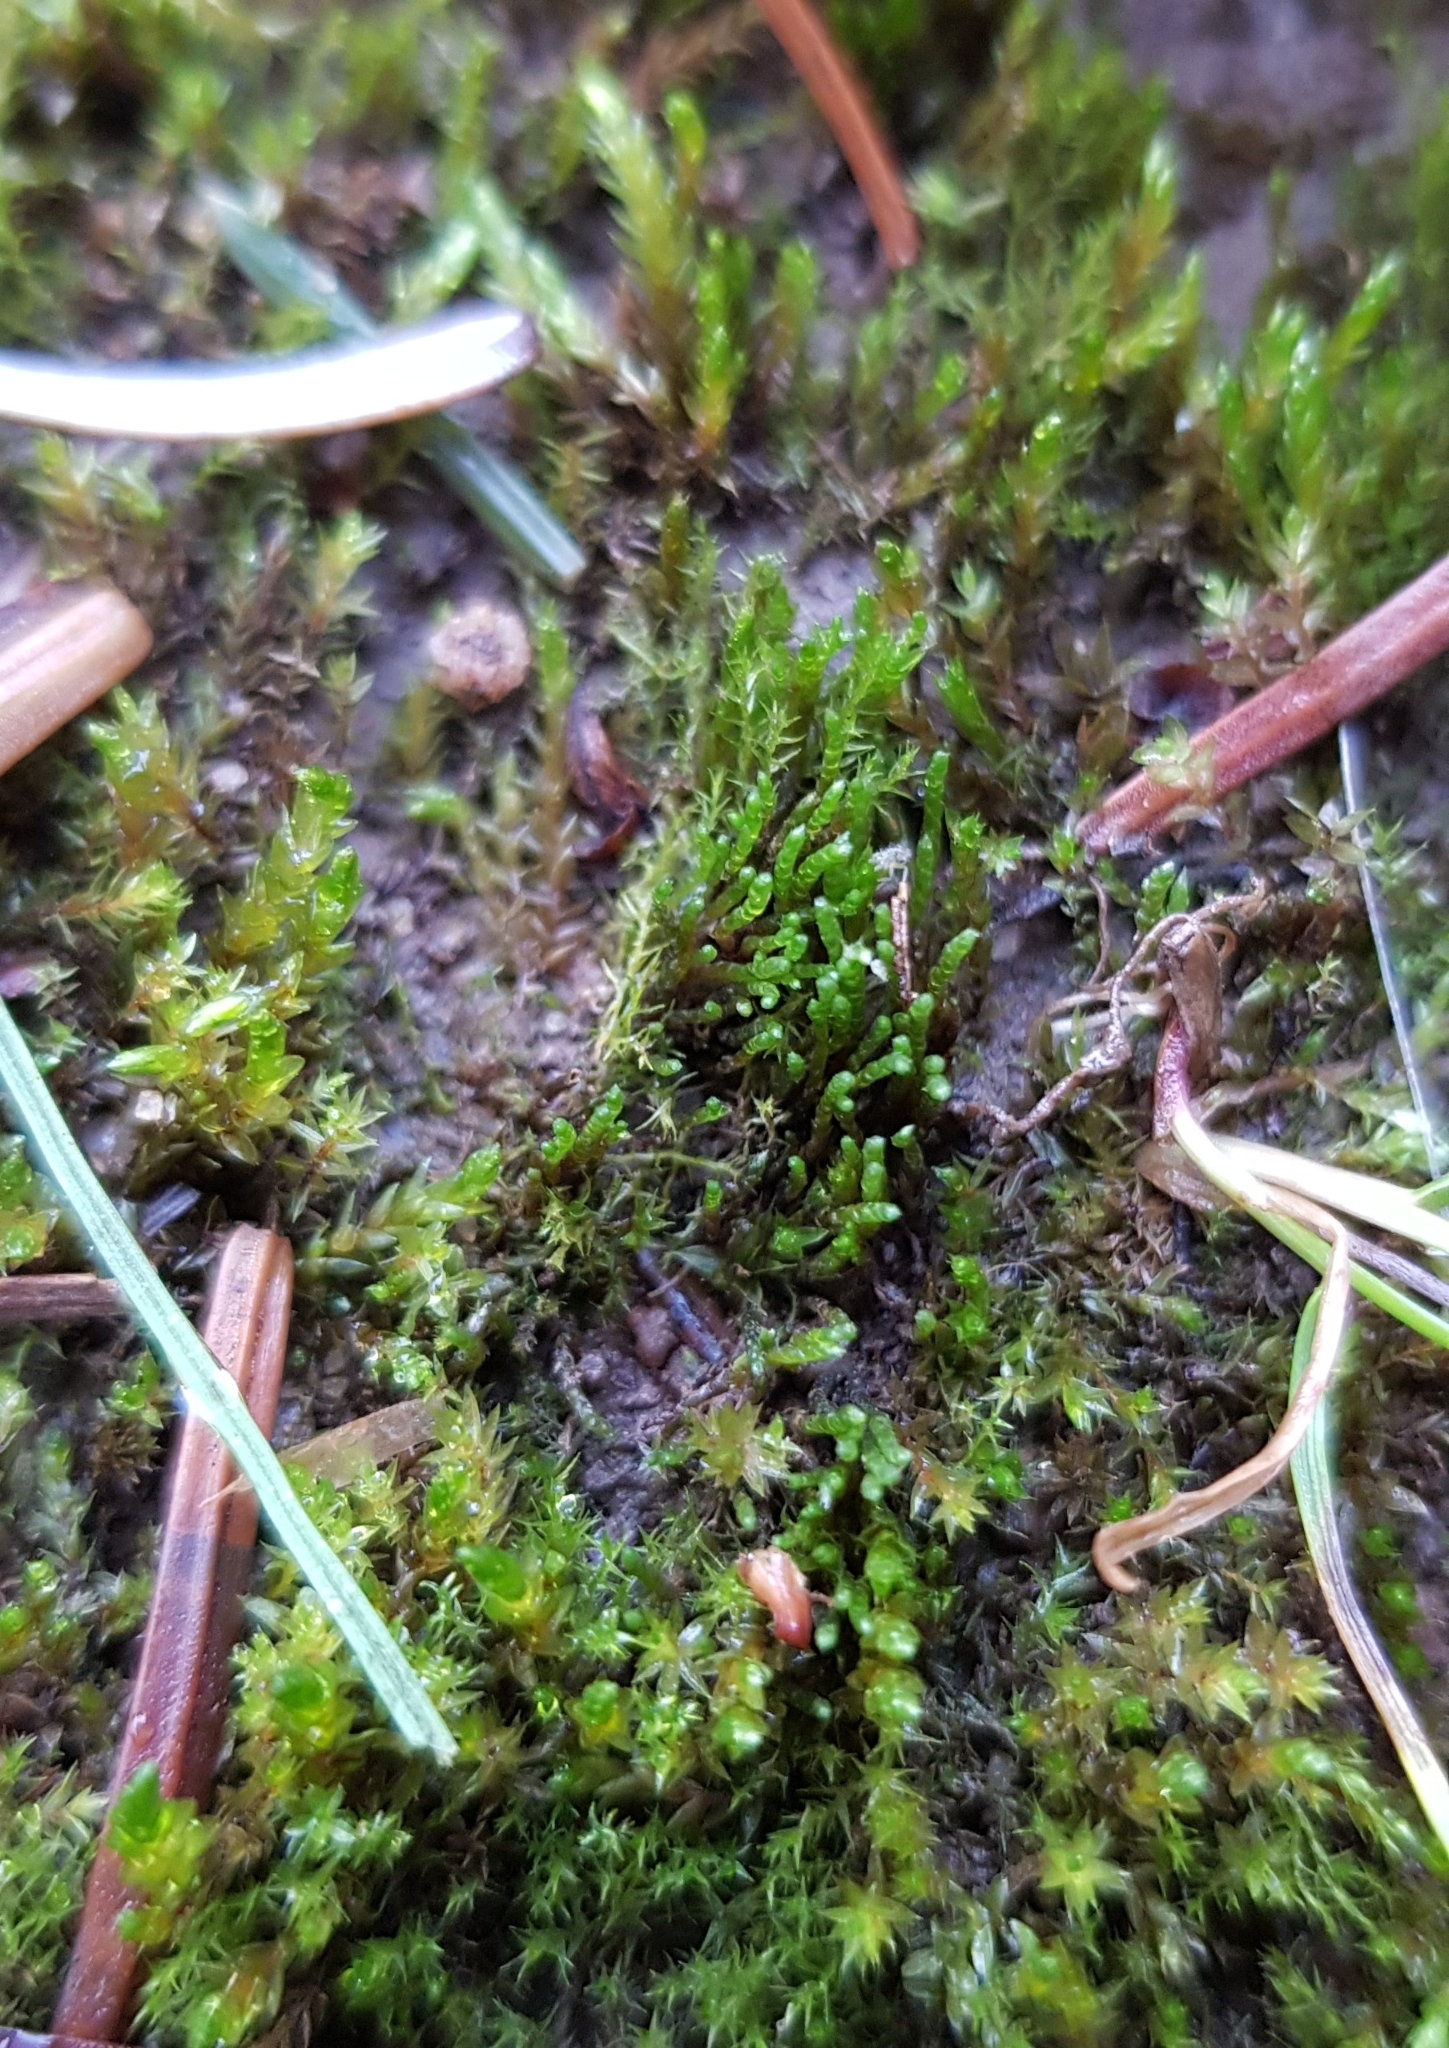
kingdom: Plantae
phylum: Bryophyta
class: Bryopsida
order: Bryales
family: Bryaceae
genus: Bryum
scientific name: Bryum argenteum
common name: Silver-moss
